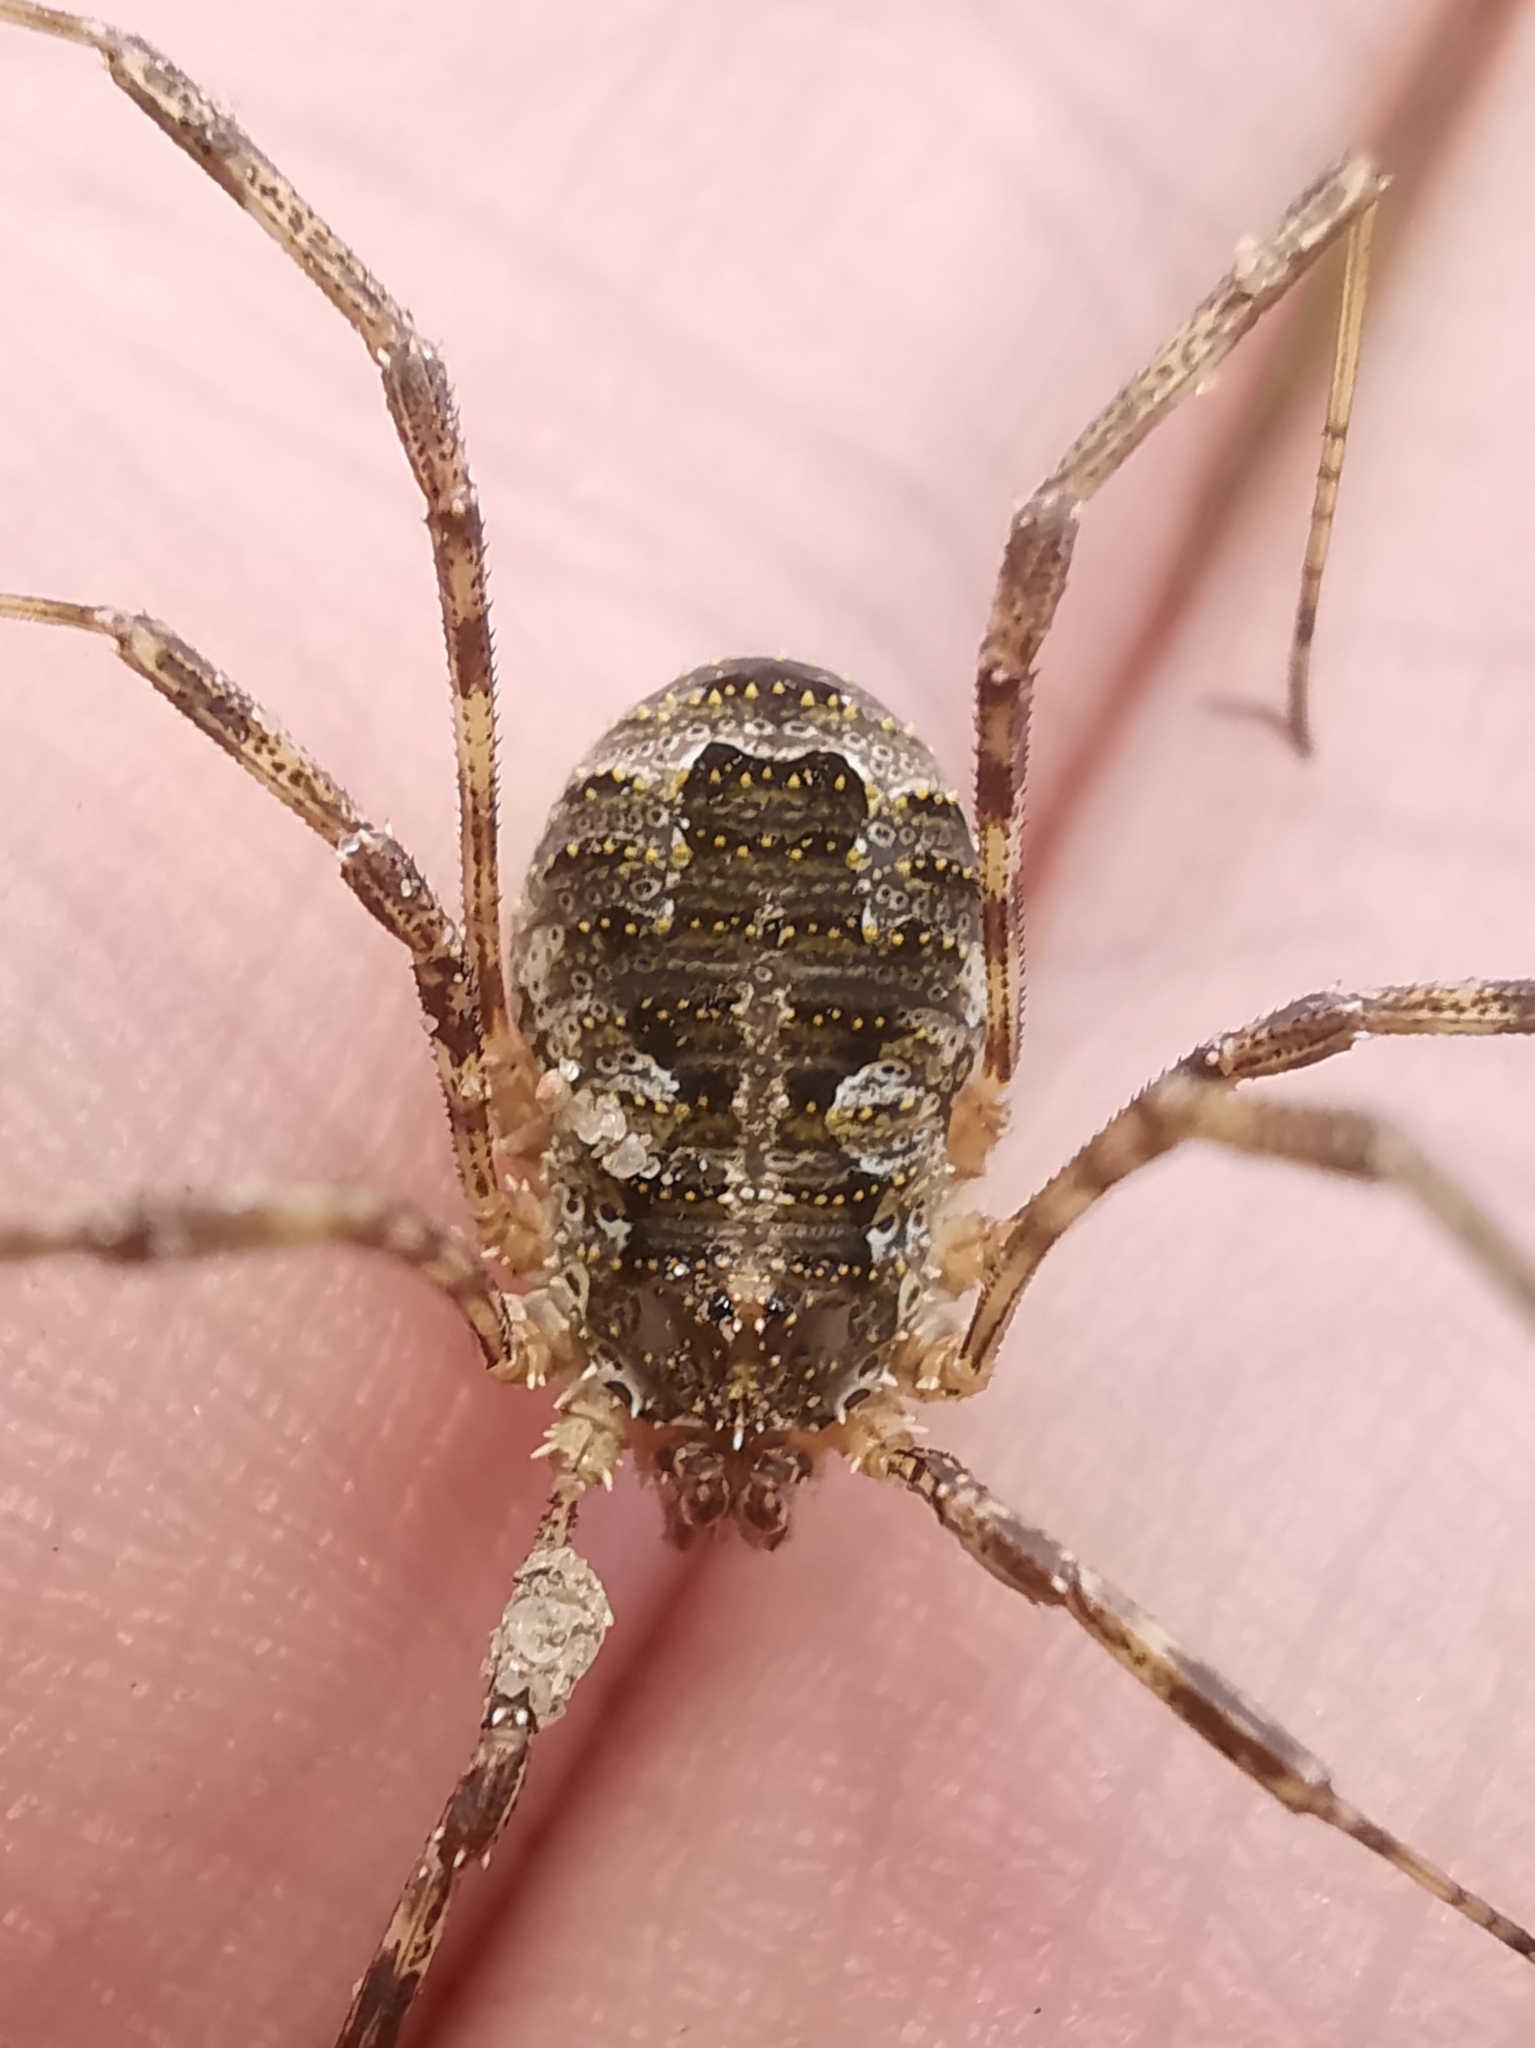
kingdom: Animalia
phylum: Arthropoda
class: Arachnida
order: Opiliones
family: Phalangiidae
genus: Lacinius
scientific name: Lacinius dentiger
